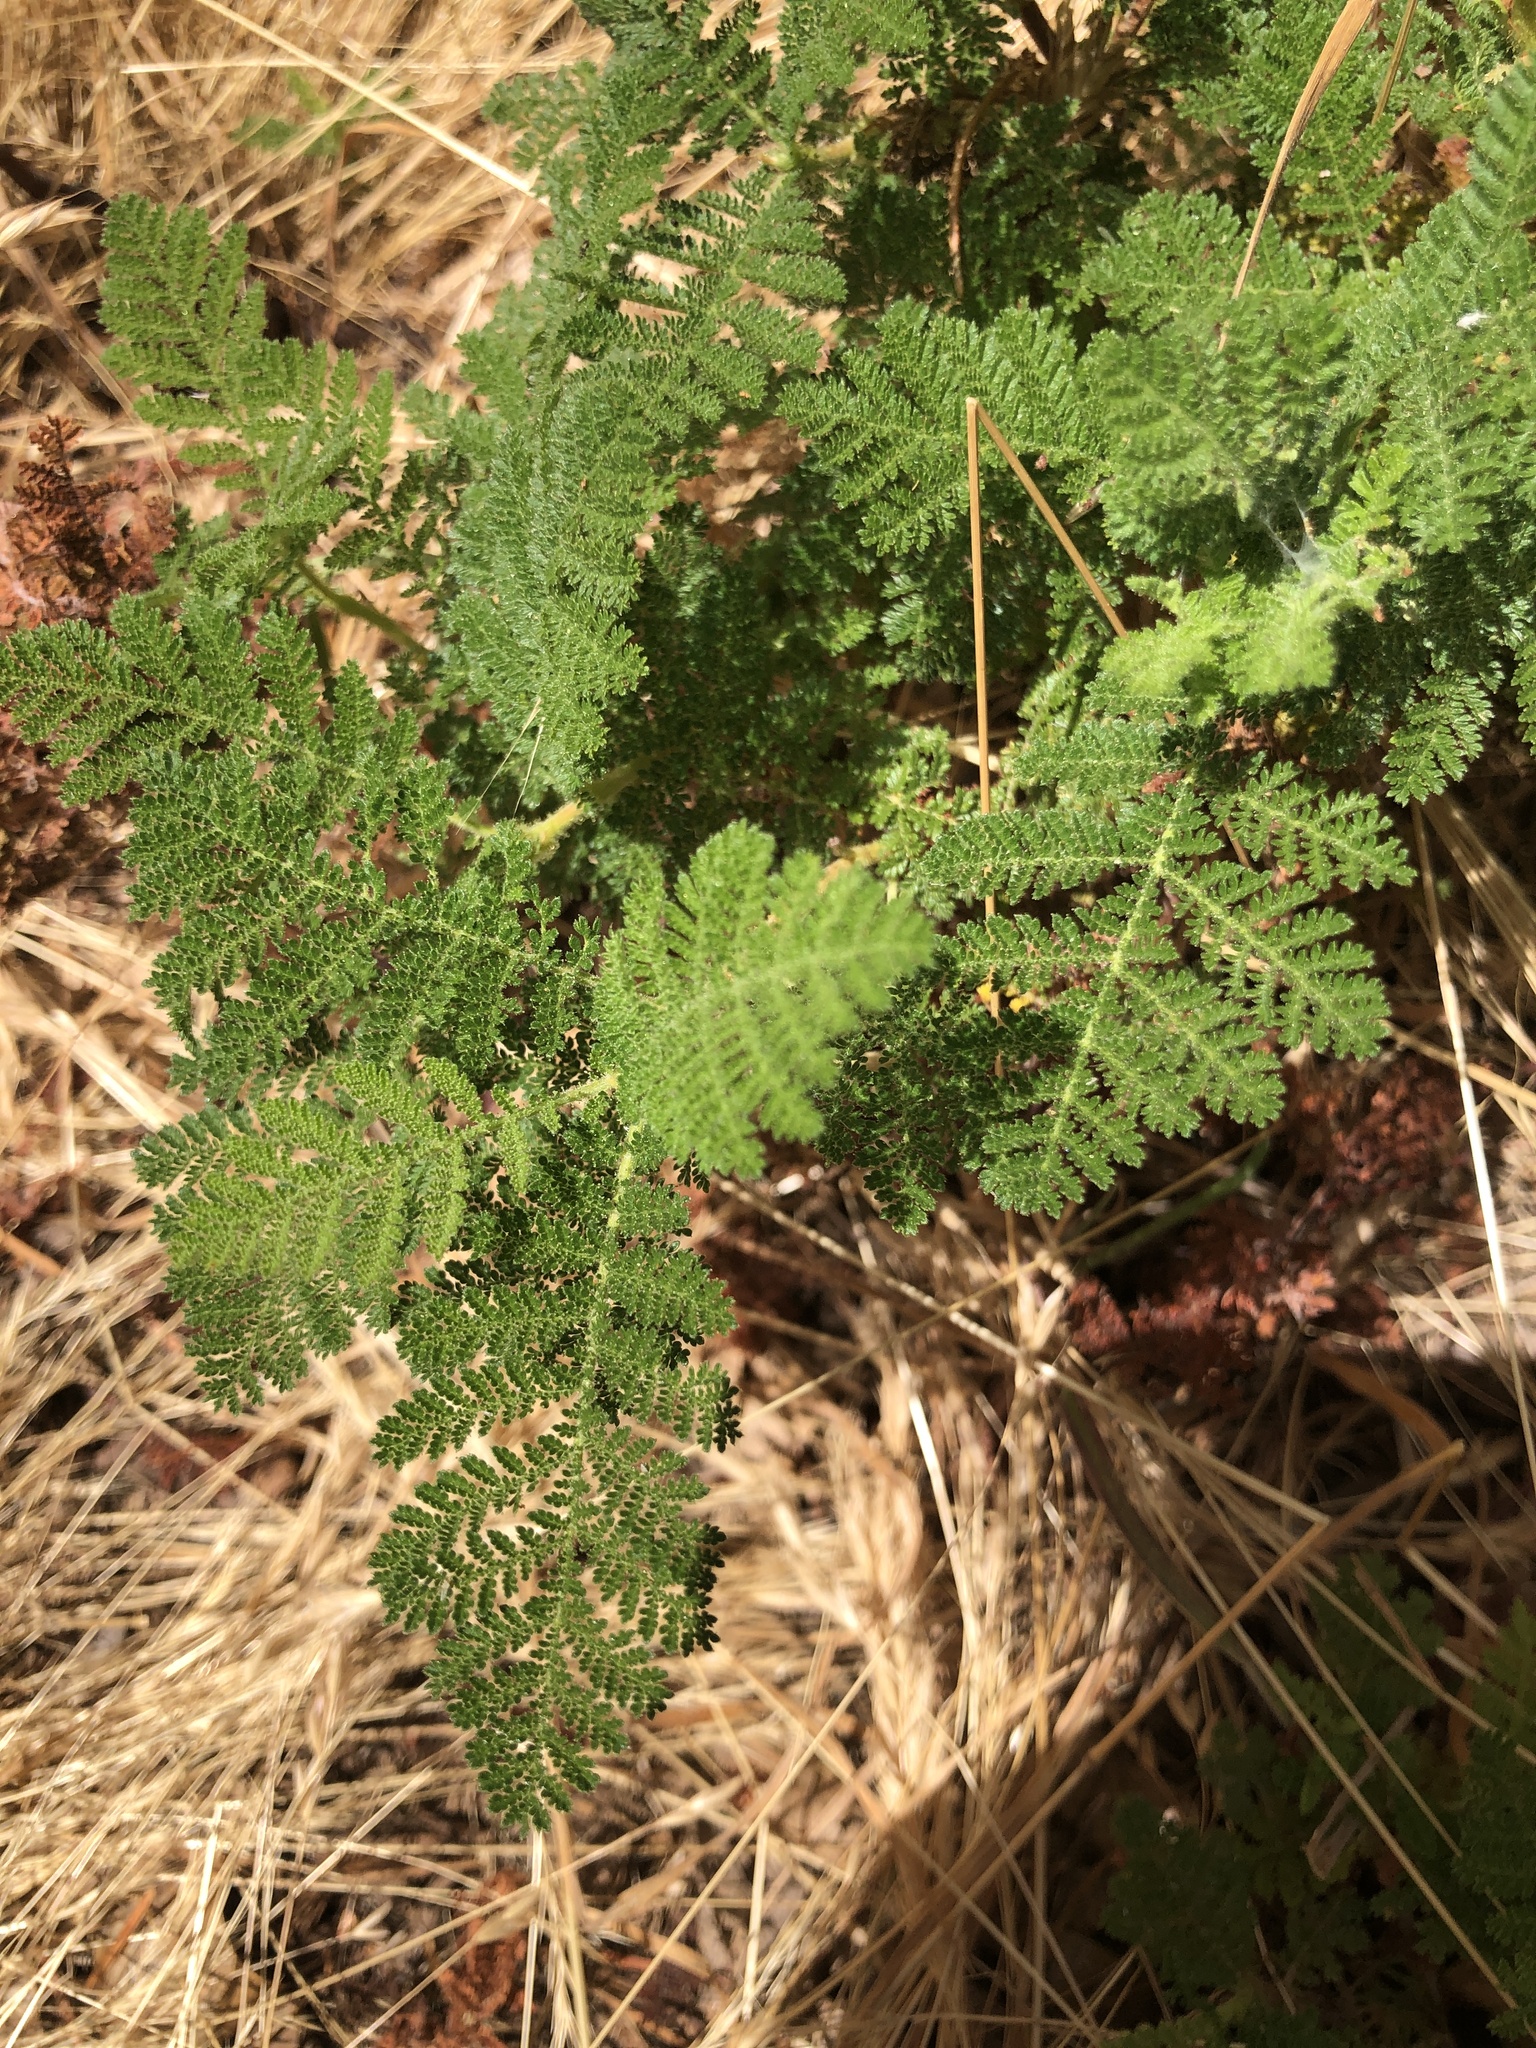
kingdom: Plantae
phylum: Tracheophyta
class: Magnoliopsida
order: Rosales
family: Rosaceae
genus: Chamaebatia
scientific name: Chamaebatia foliolosa
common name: Mountain misery
